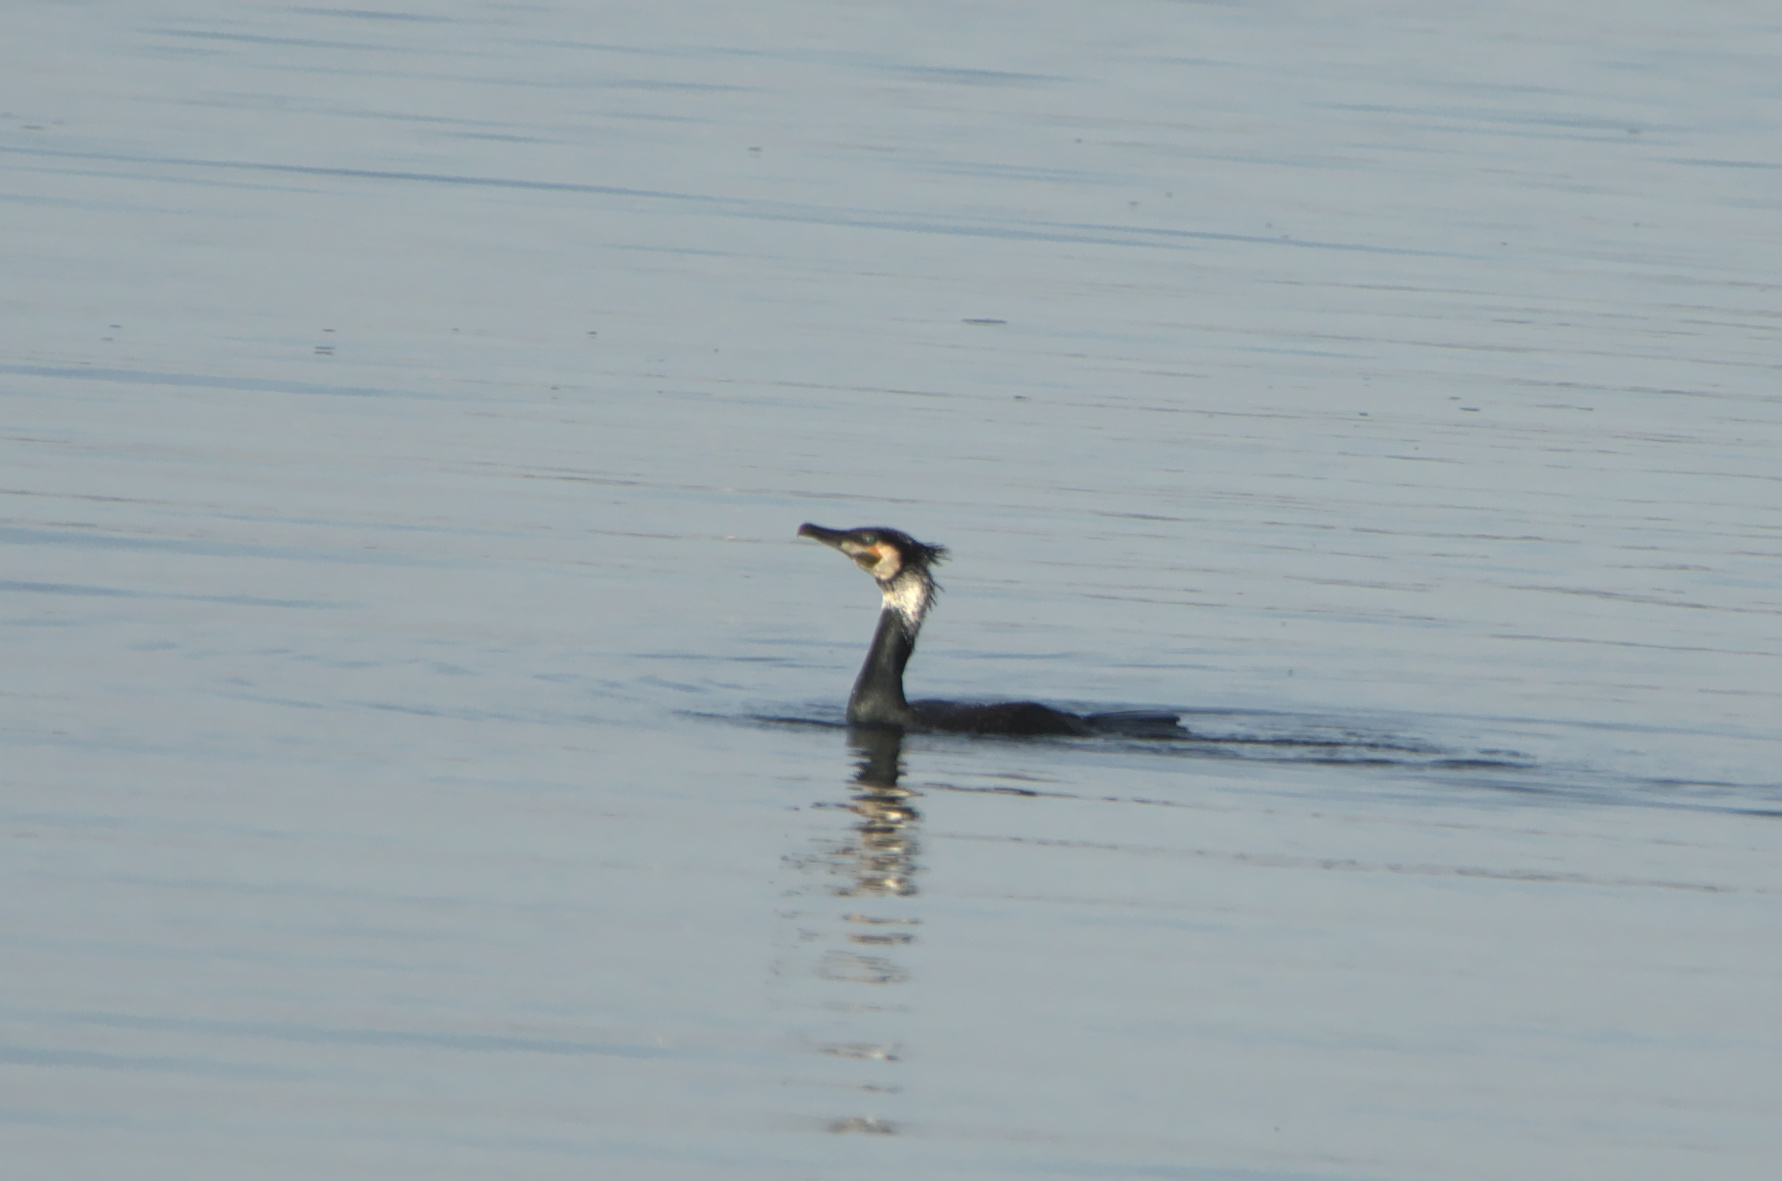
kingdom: Animalia
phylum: Chordata
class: Aves
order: Suliformes
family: Phalacrocoracidae
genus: Phalacrocorax
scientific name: Phalacrocorax carbo
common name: Great cormorant
